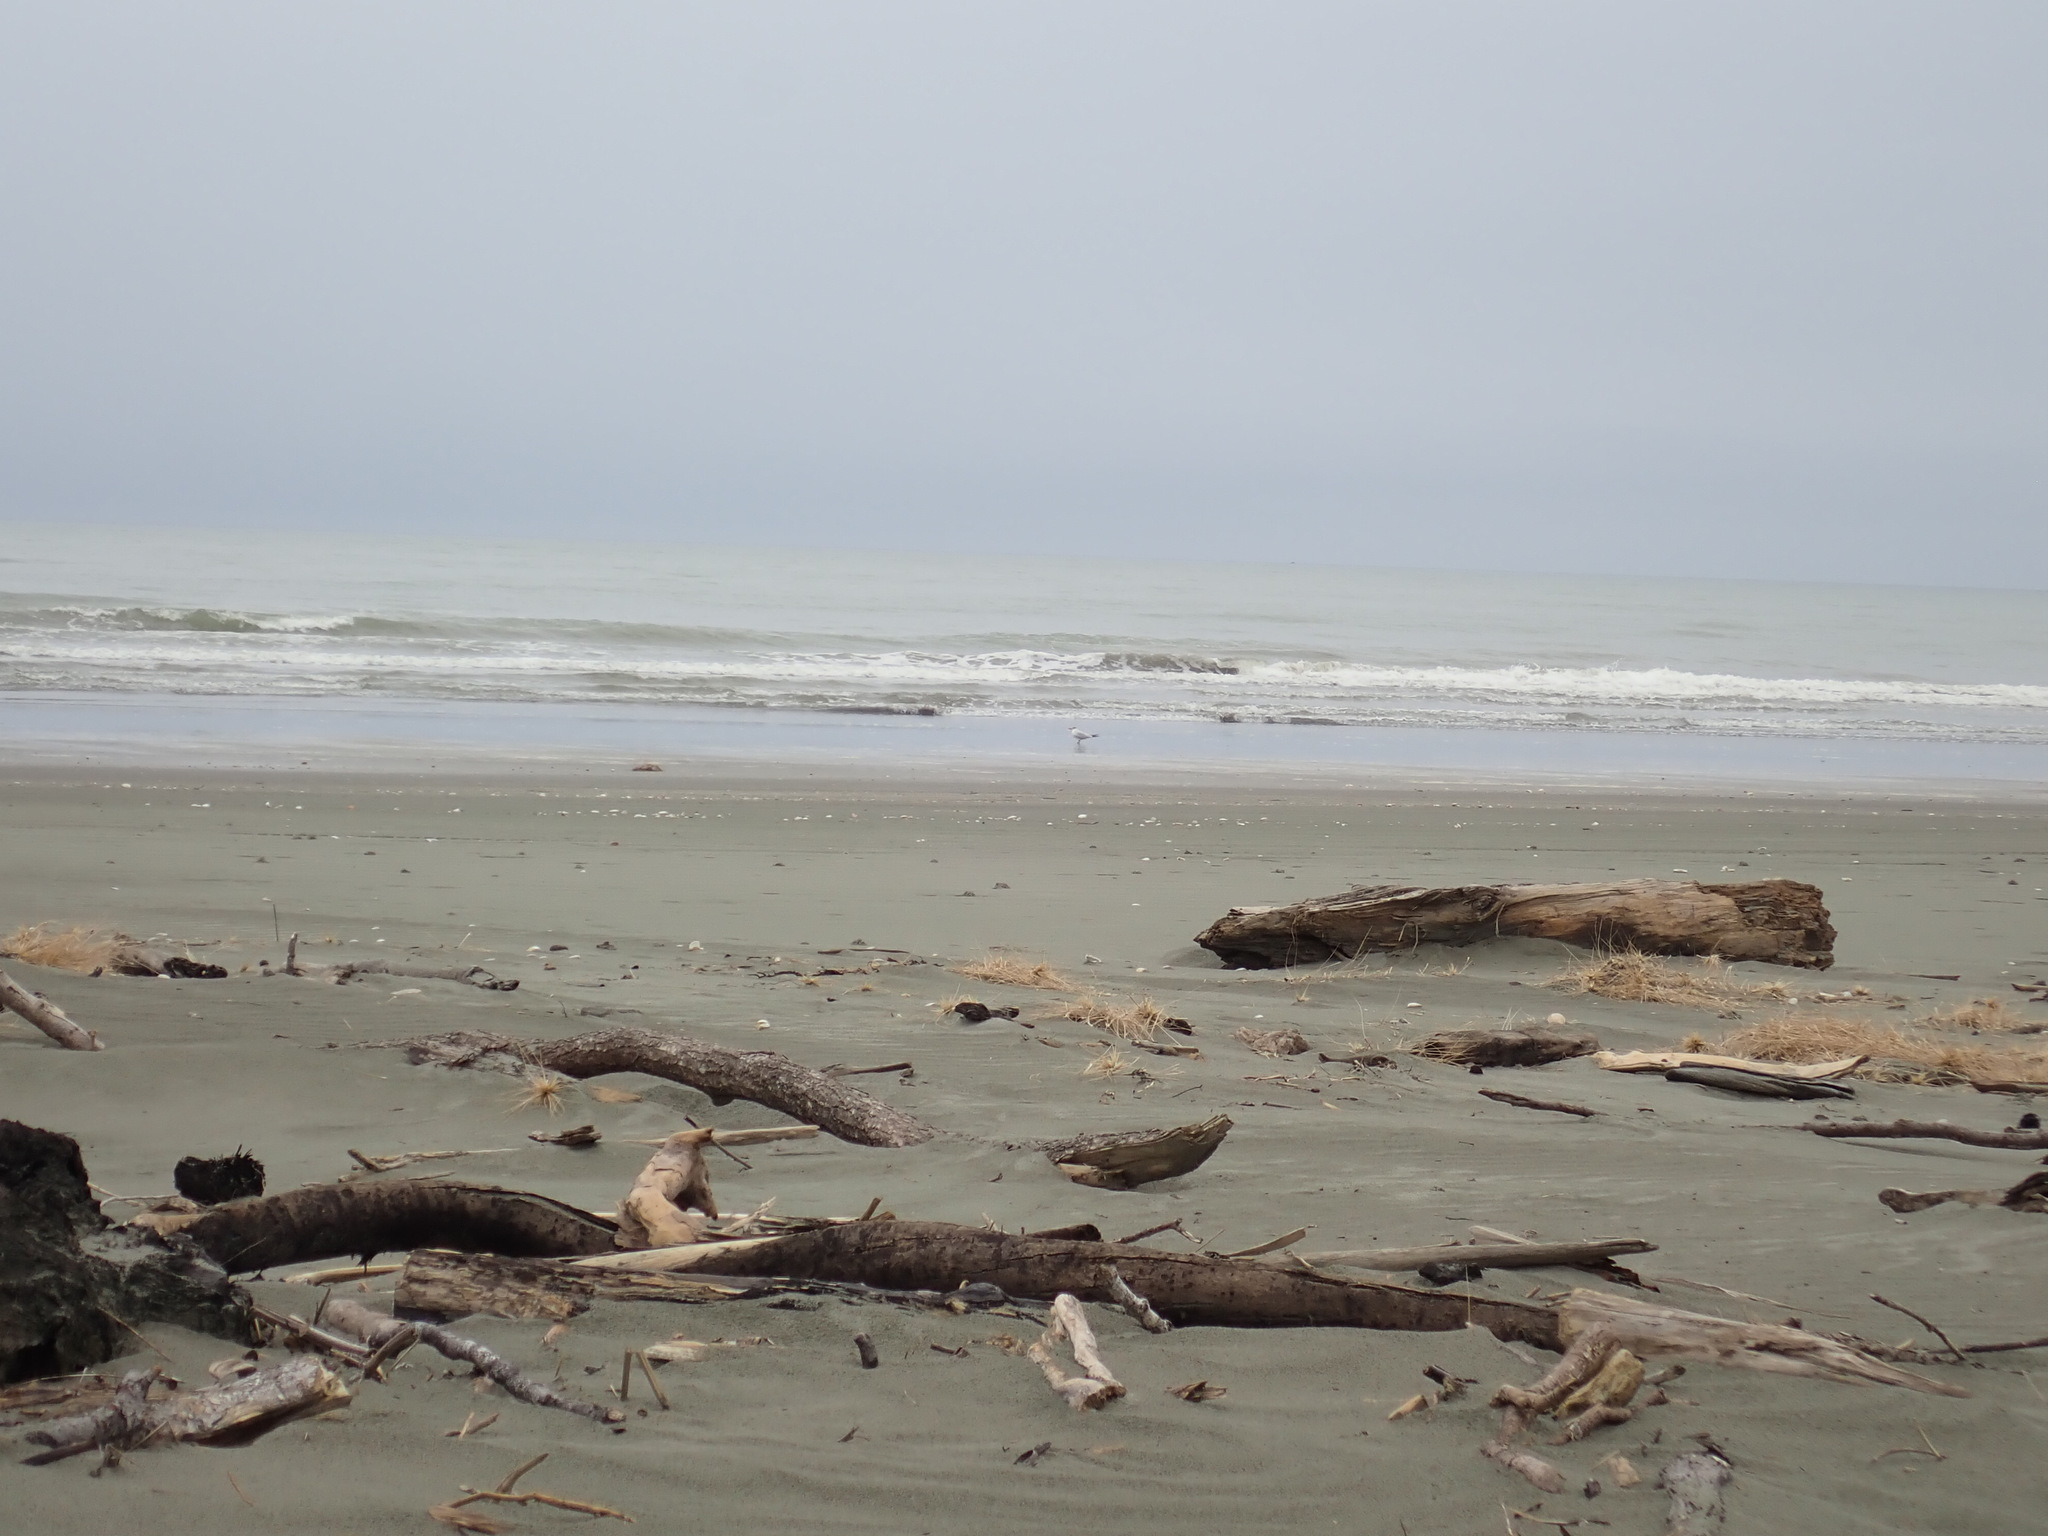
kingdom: Animalia
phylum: Chordata
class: Aves
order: Charadriiformes
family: Laridae
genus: Hydroprogne
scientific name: Hydroprogne caspia
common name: Caspian tern
